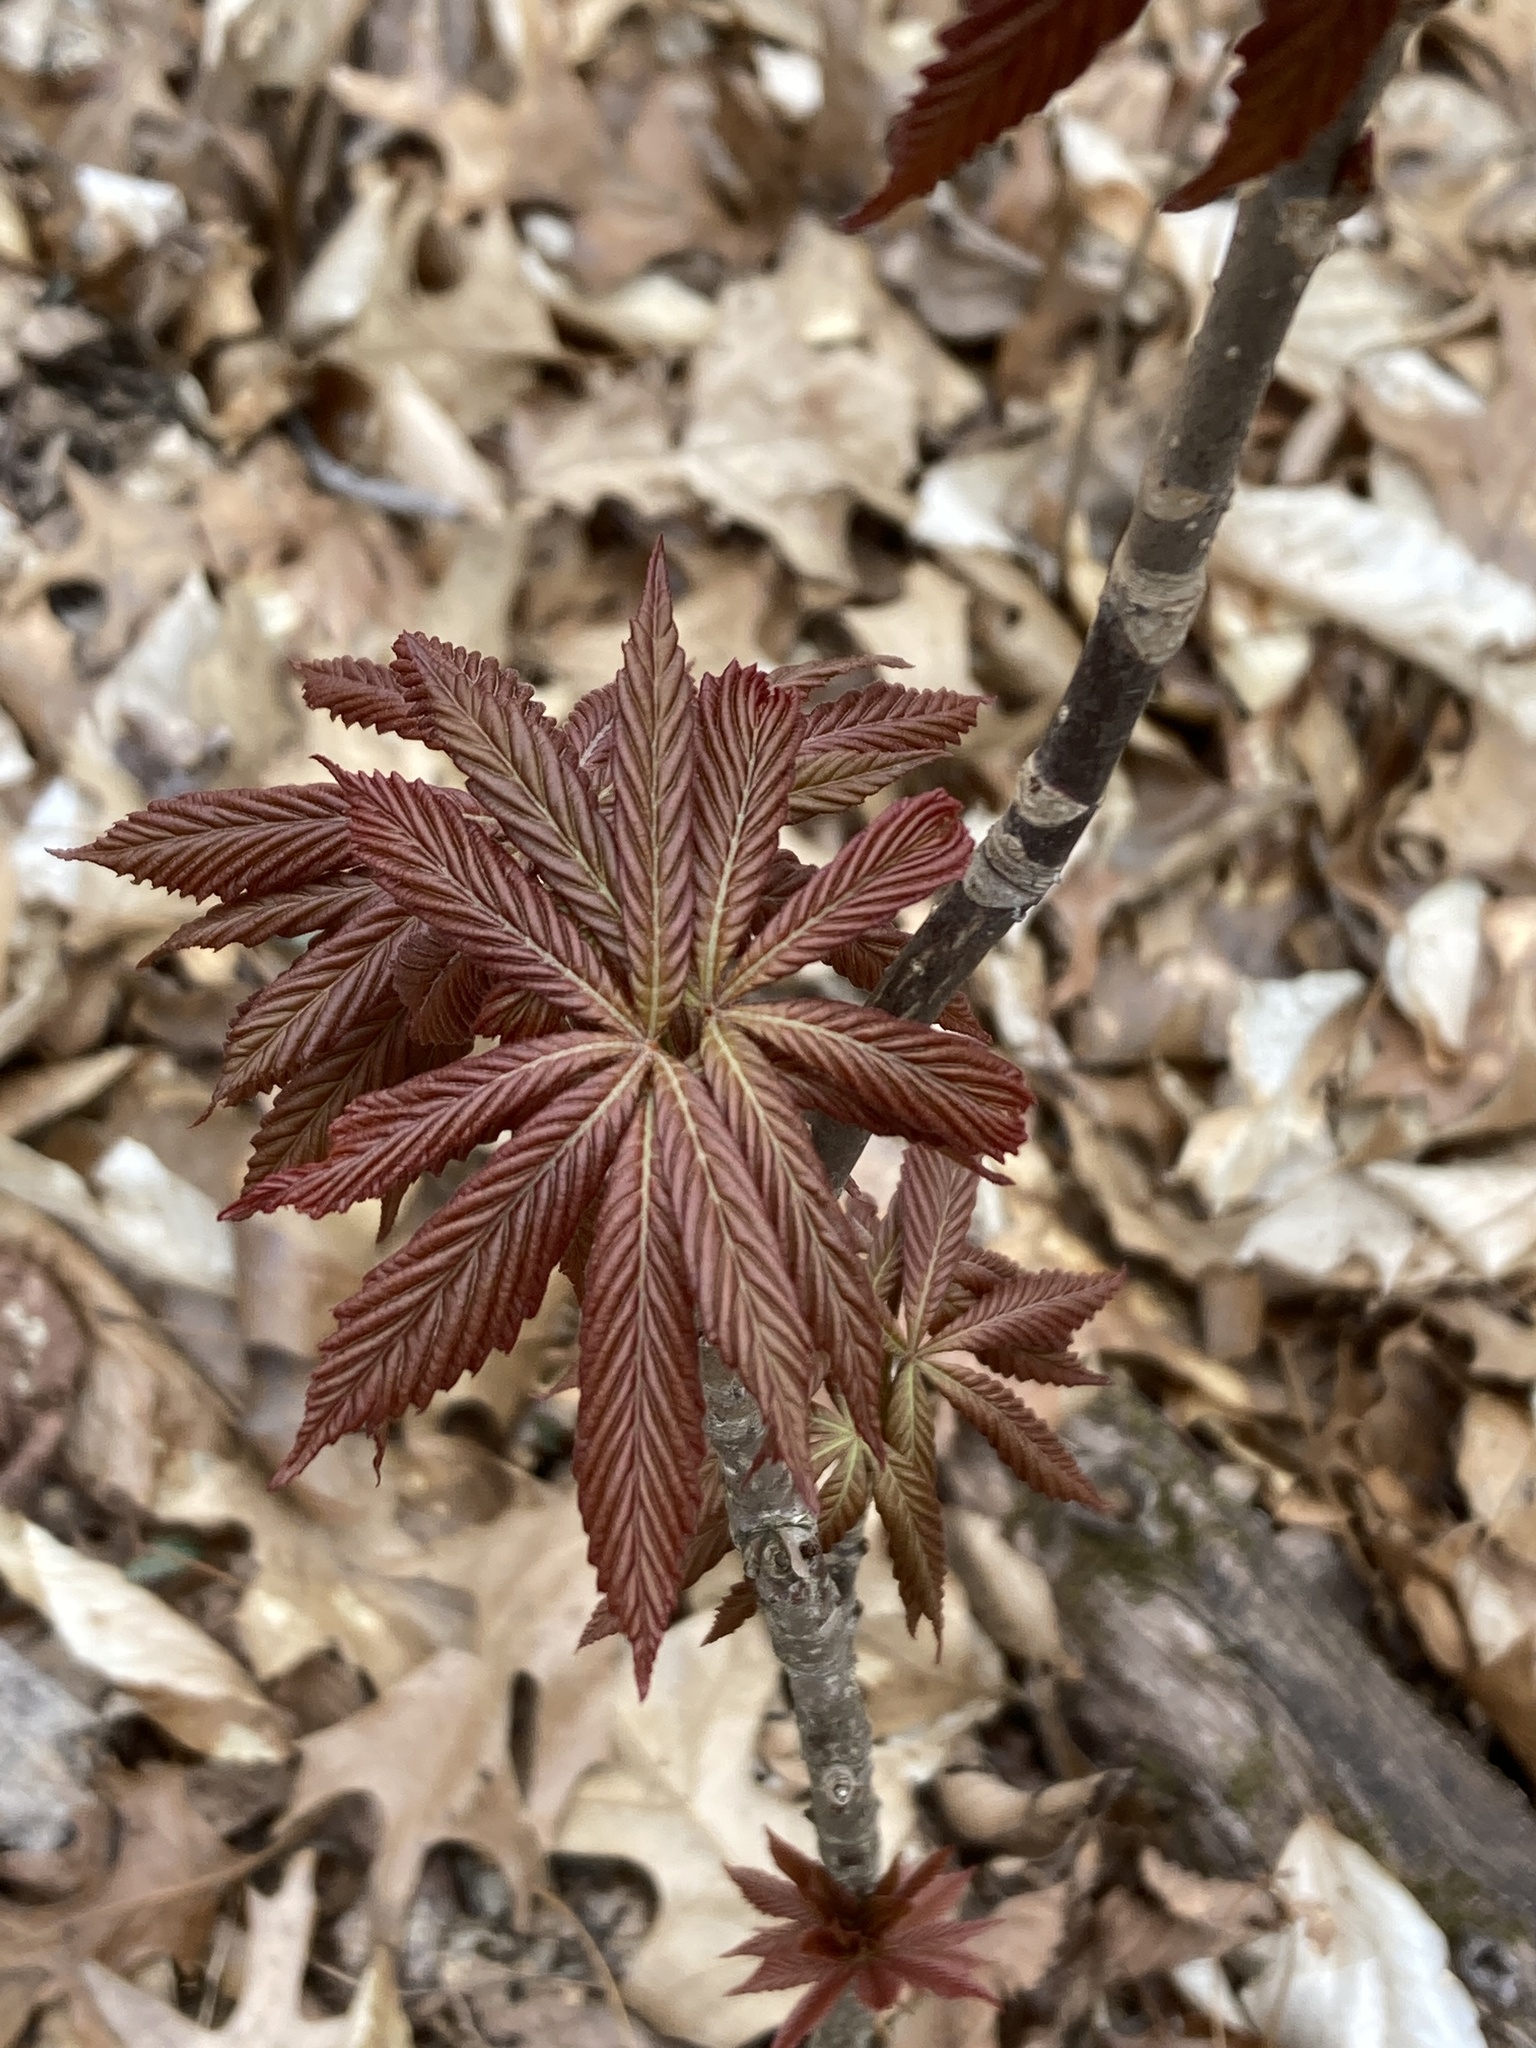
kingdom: Plantae
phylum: Tracheophyta
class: Magnoliopsida
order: Sapindales
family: Sapindaceae
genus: Aesculus
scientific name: Aesculus glabra
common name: Ohio buckeye
